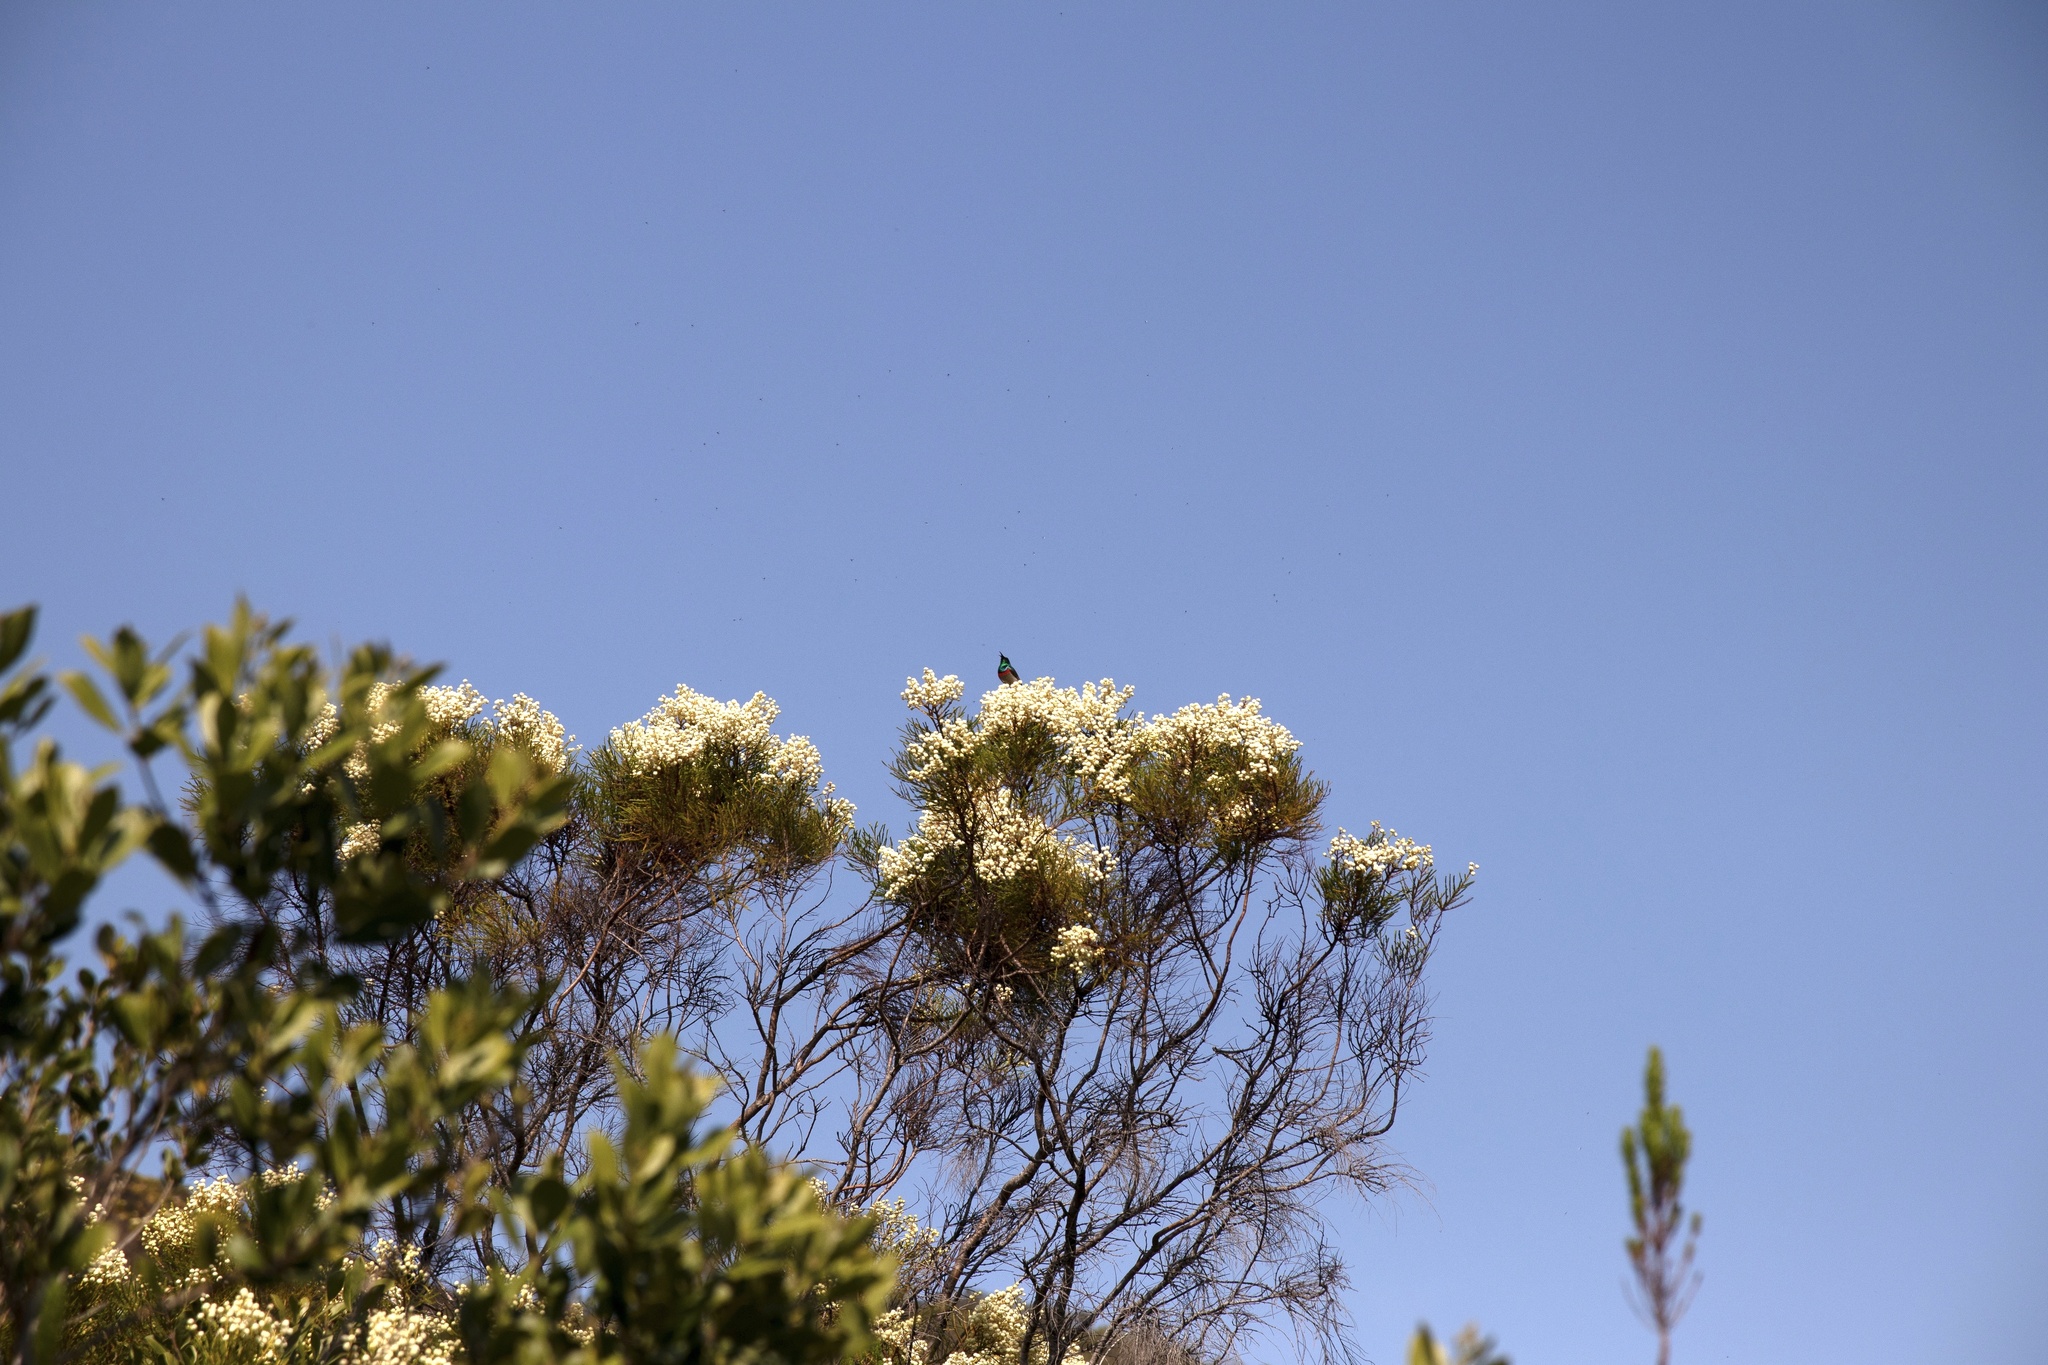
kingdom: Animalia
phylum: Chordata
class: Aves
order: Passeriformes
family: Nectariniidae
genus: Cinnyris
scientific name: Cinnyris chalybeus
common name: Southern double-collared sunbird
